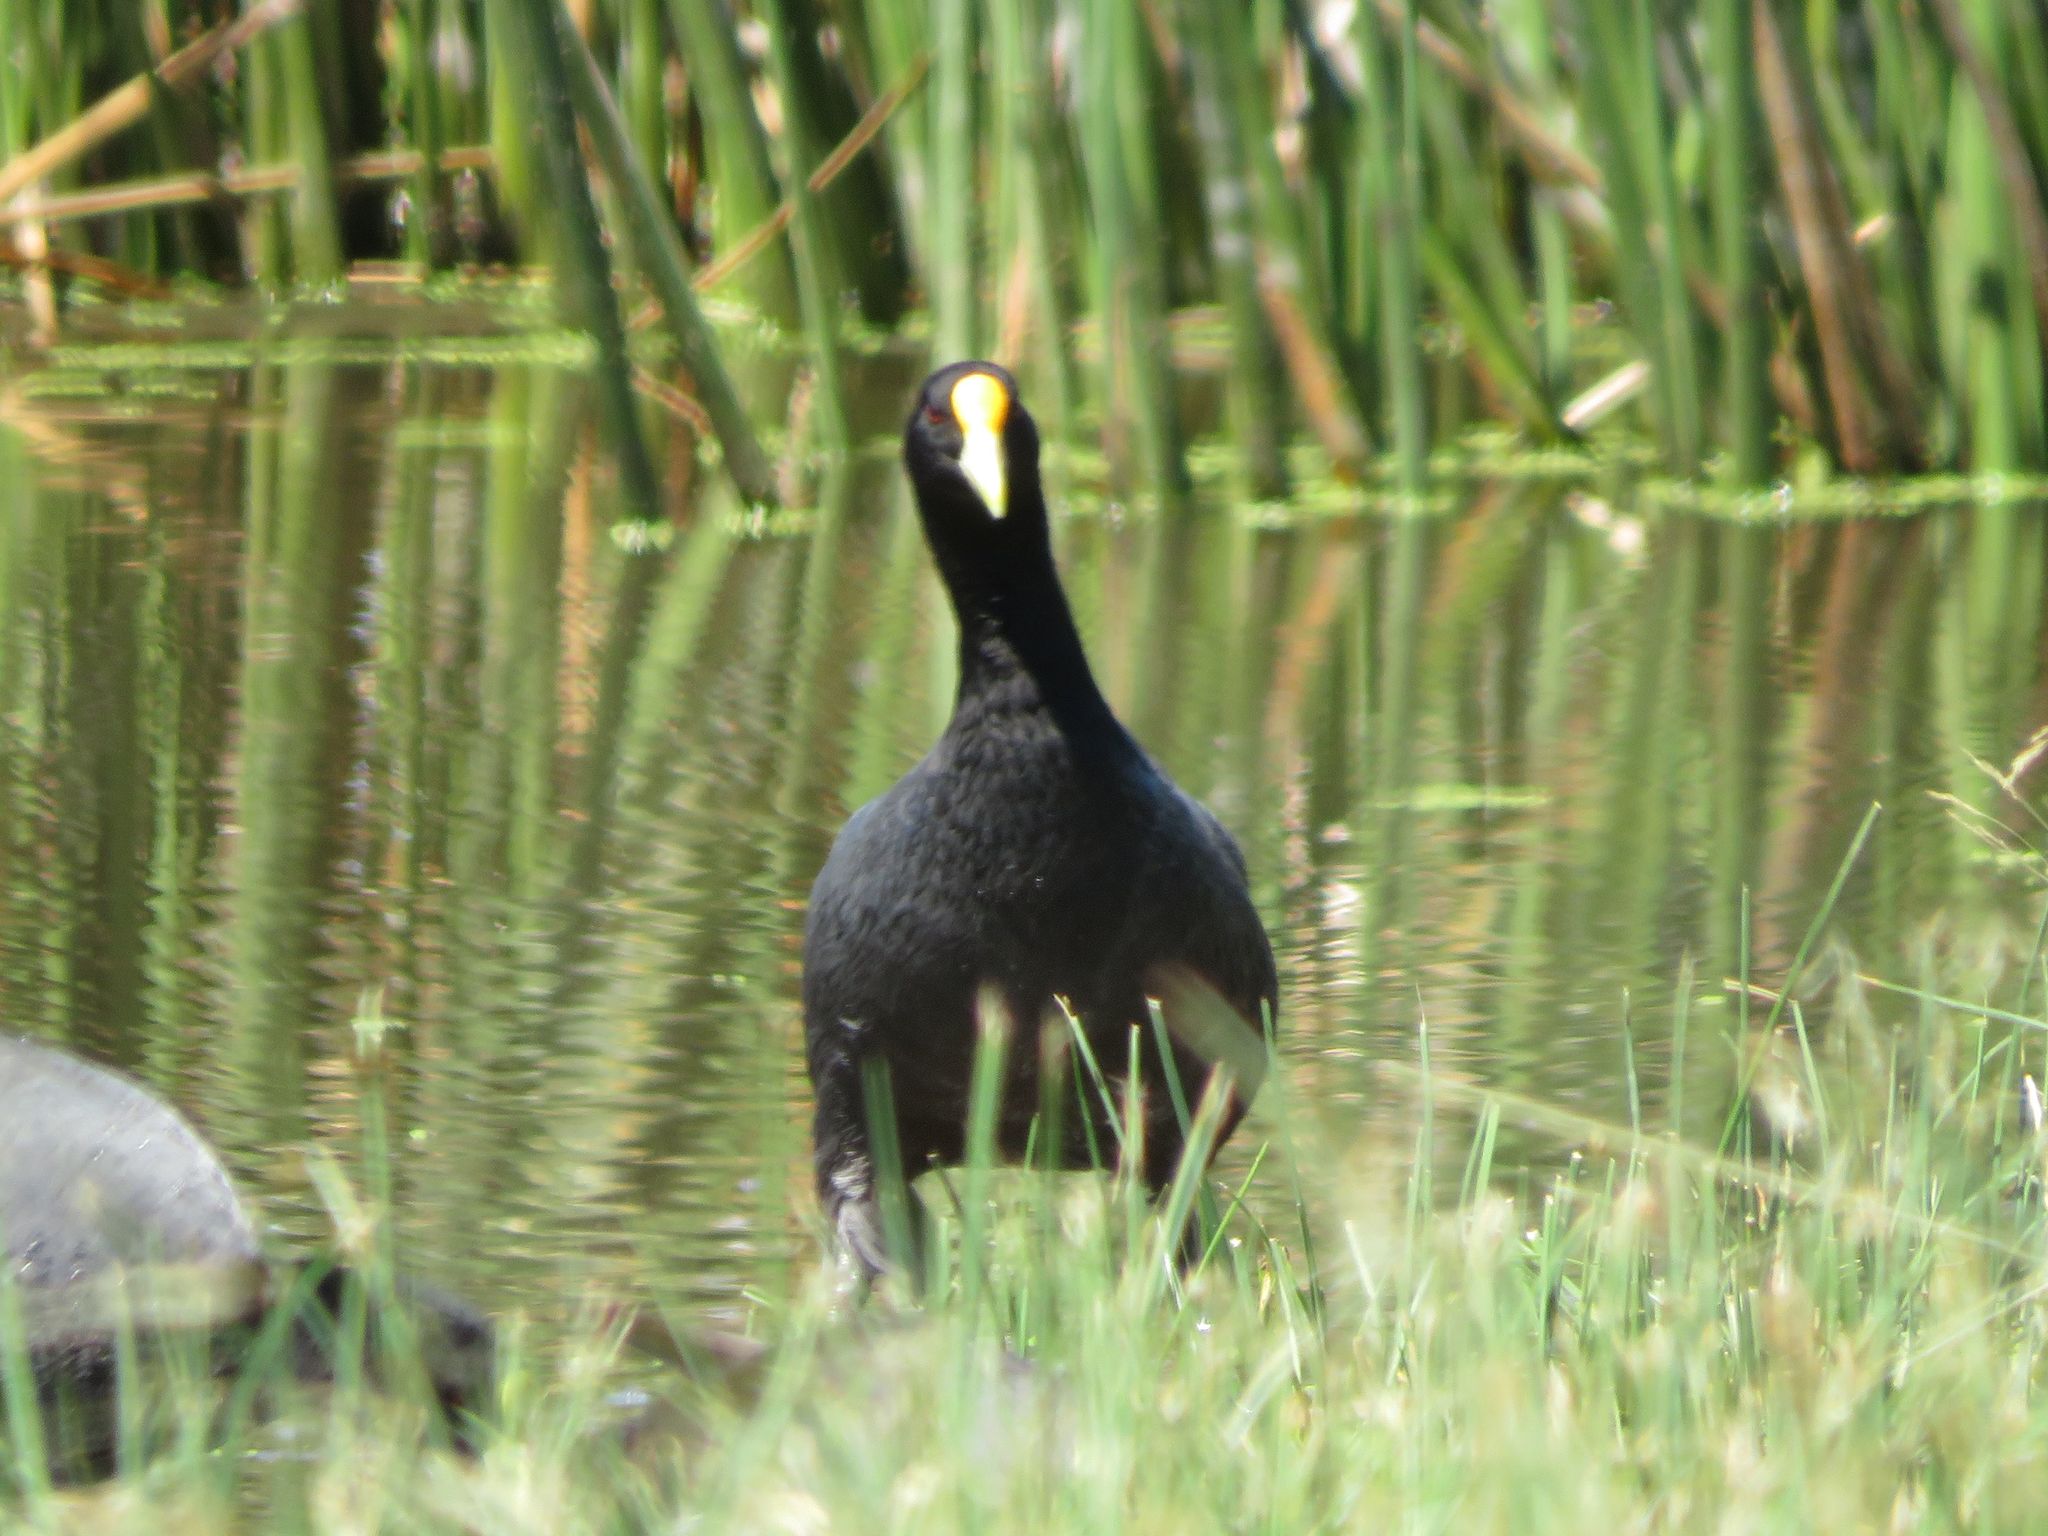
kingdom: Animalia
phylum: Chordata
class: Aves
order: Gruiformes
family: Rallidae
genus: Fulica
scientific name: Fulica leucoptera
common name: White-winged coot
